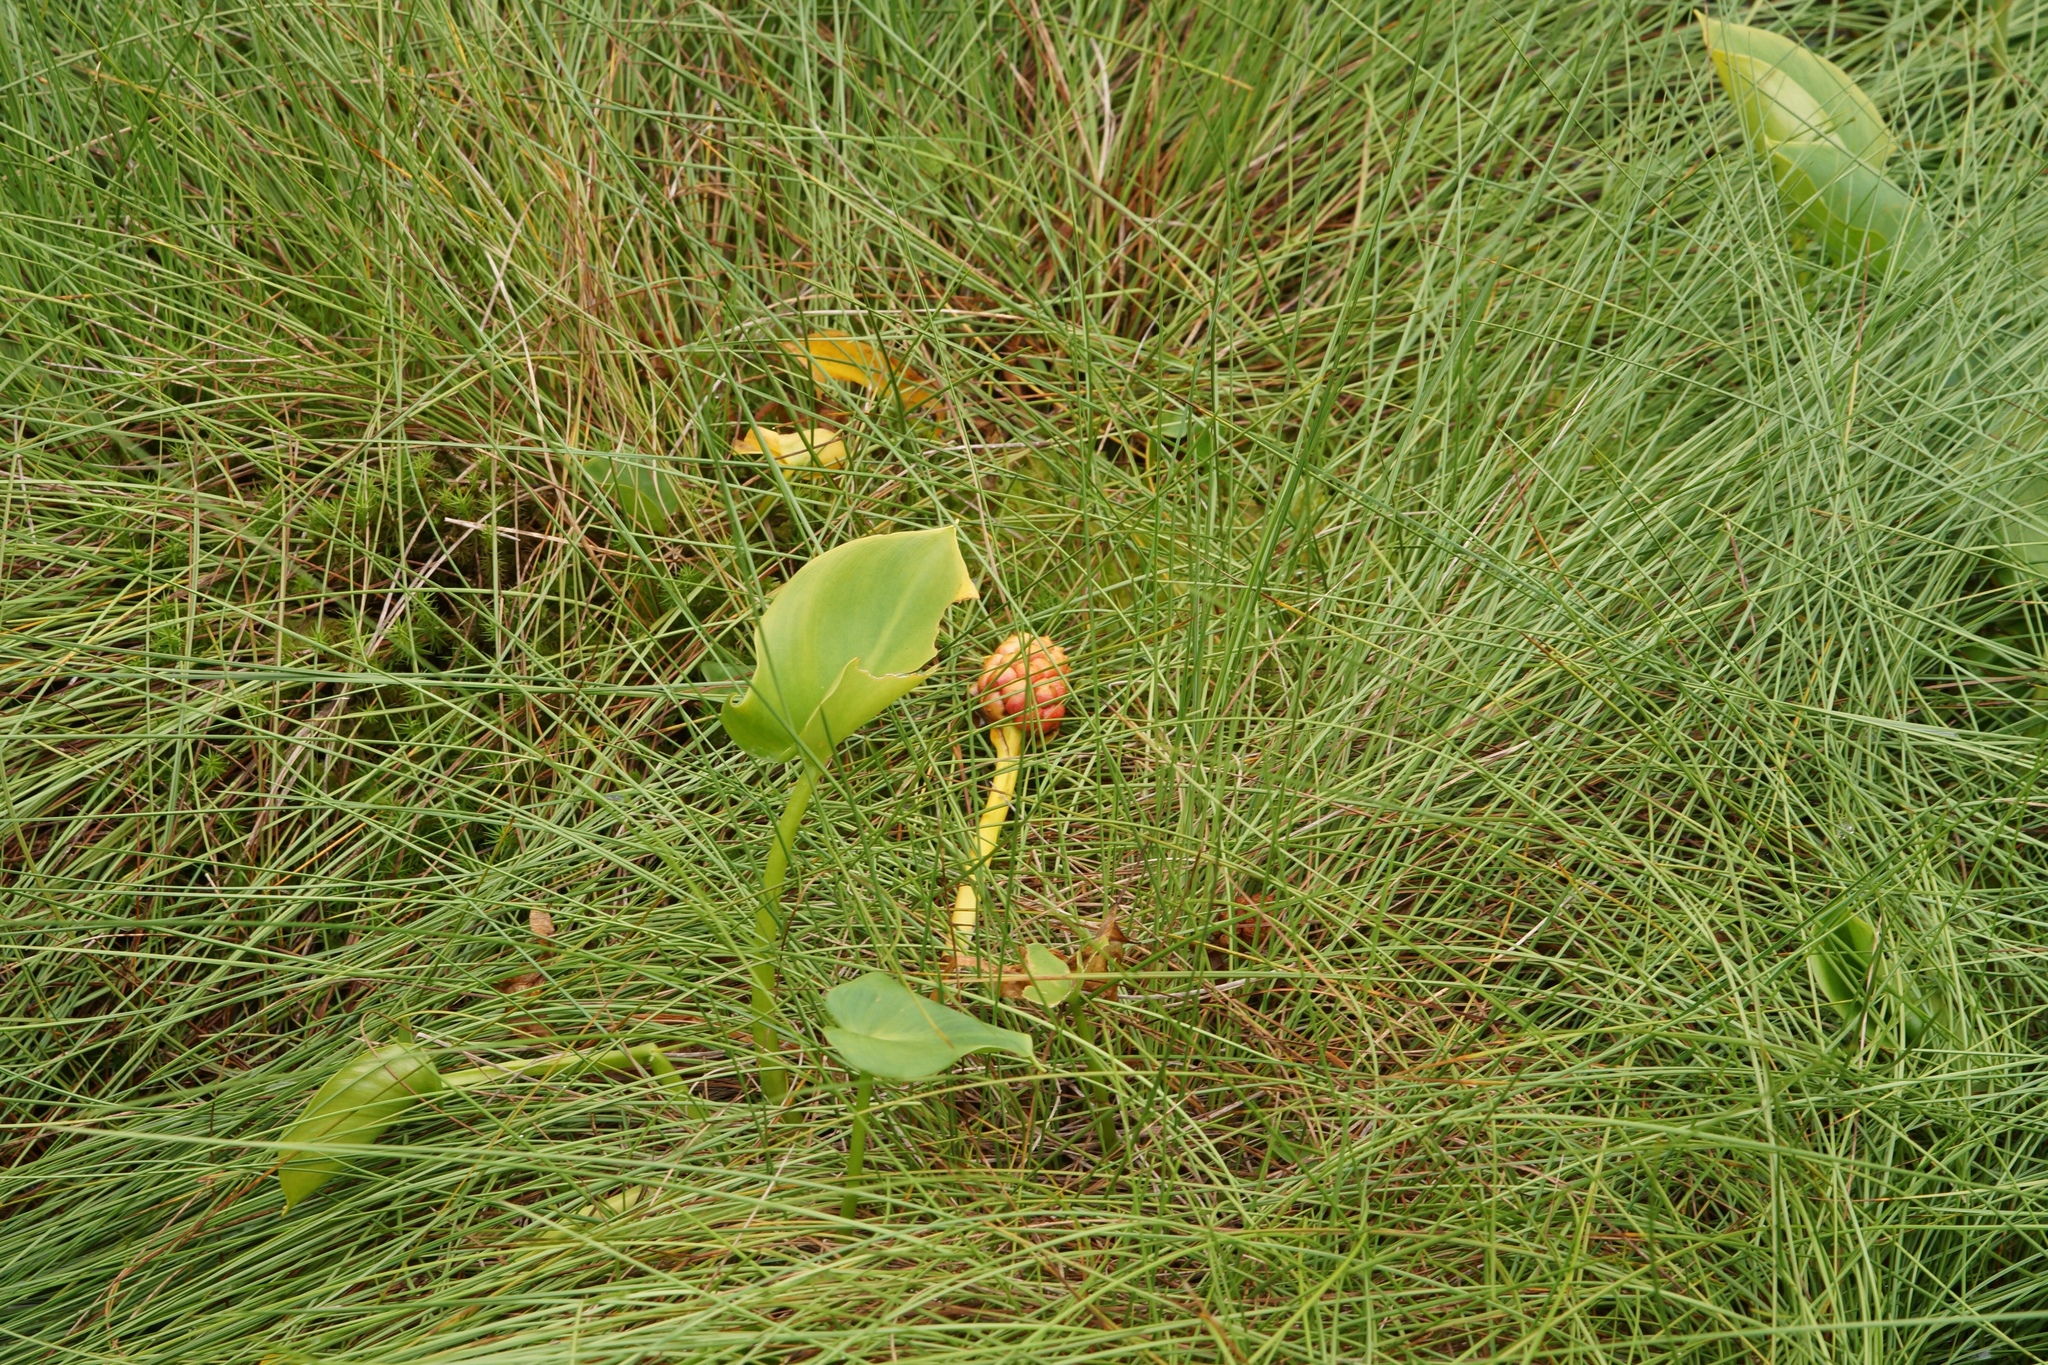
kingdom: Plantae
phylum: Tracheophyta
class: Liliopsida
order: Alismatales
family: Araceae
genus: Calla
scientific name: Calla palustris
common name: Bog arum
